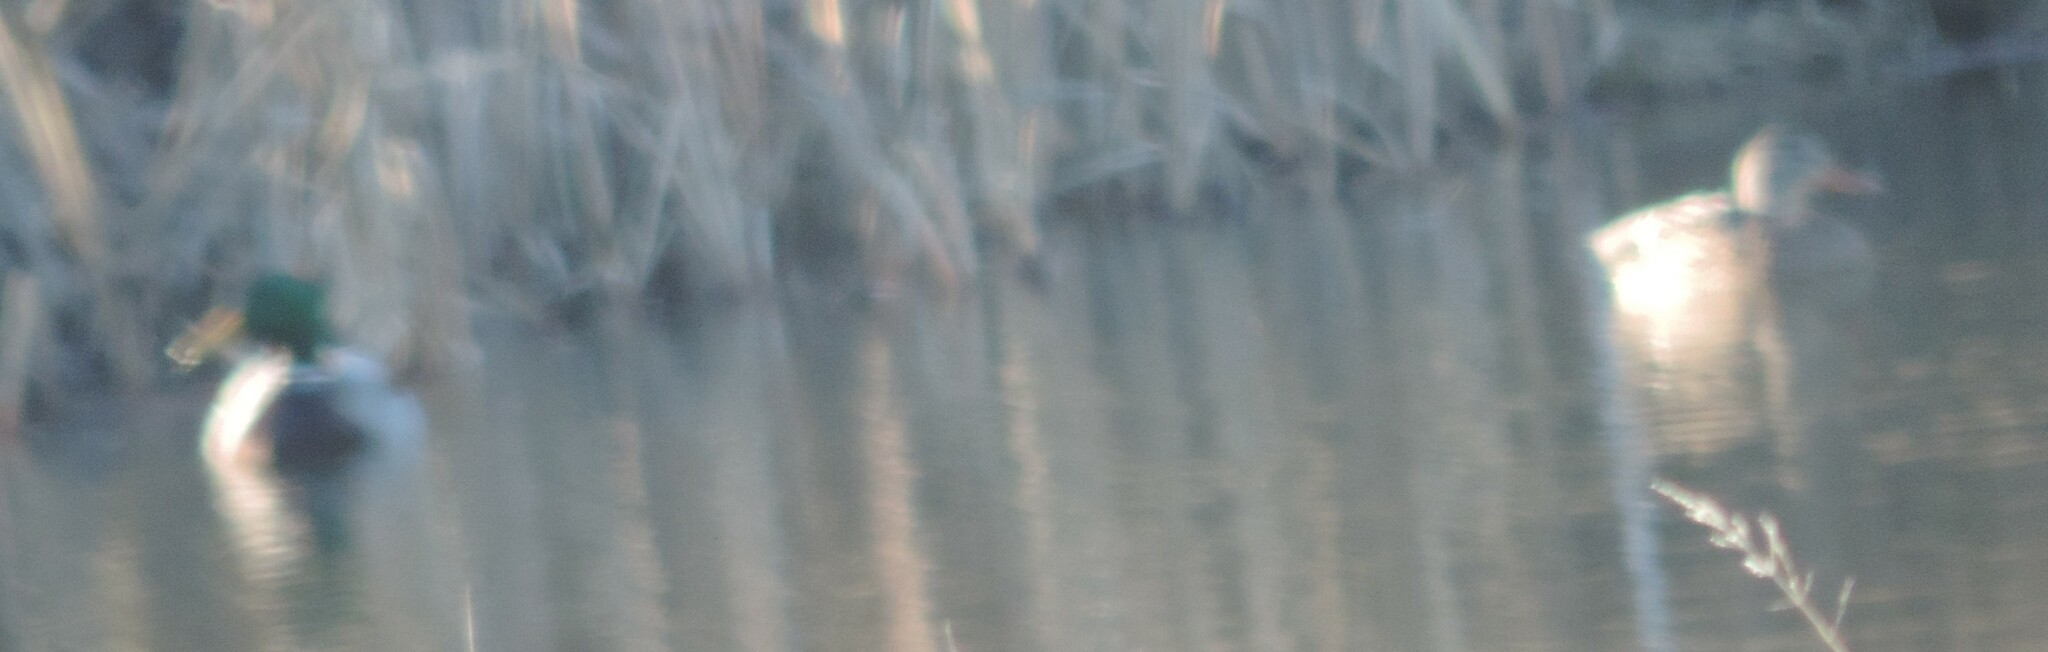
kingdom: Animalia
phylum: Chordata
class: Aves
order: Anseriformes
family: Anatidae
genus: Anas
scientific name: Anas platyrhynchos
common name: Mallard
